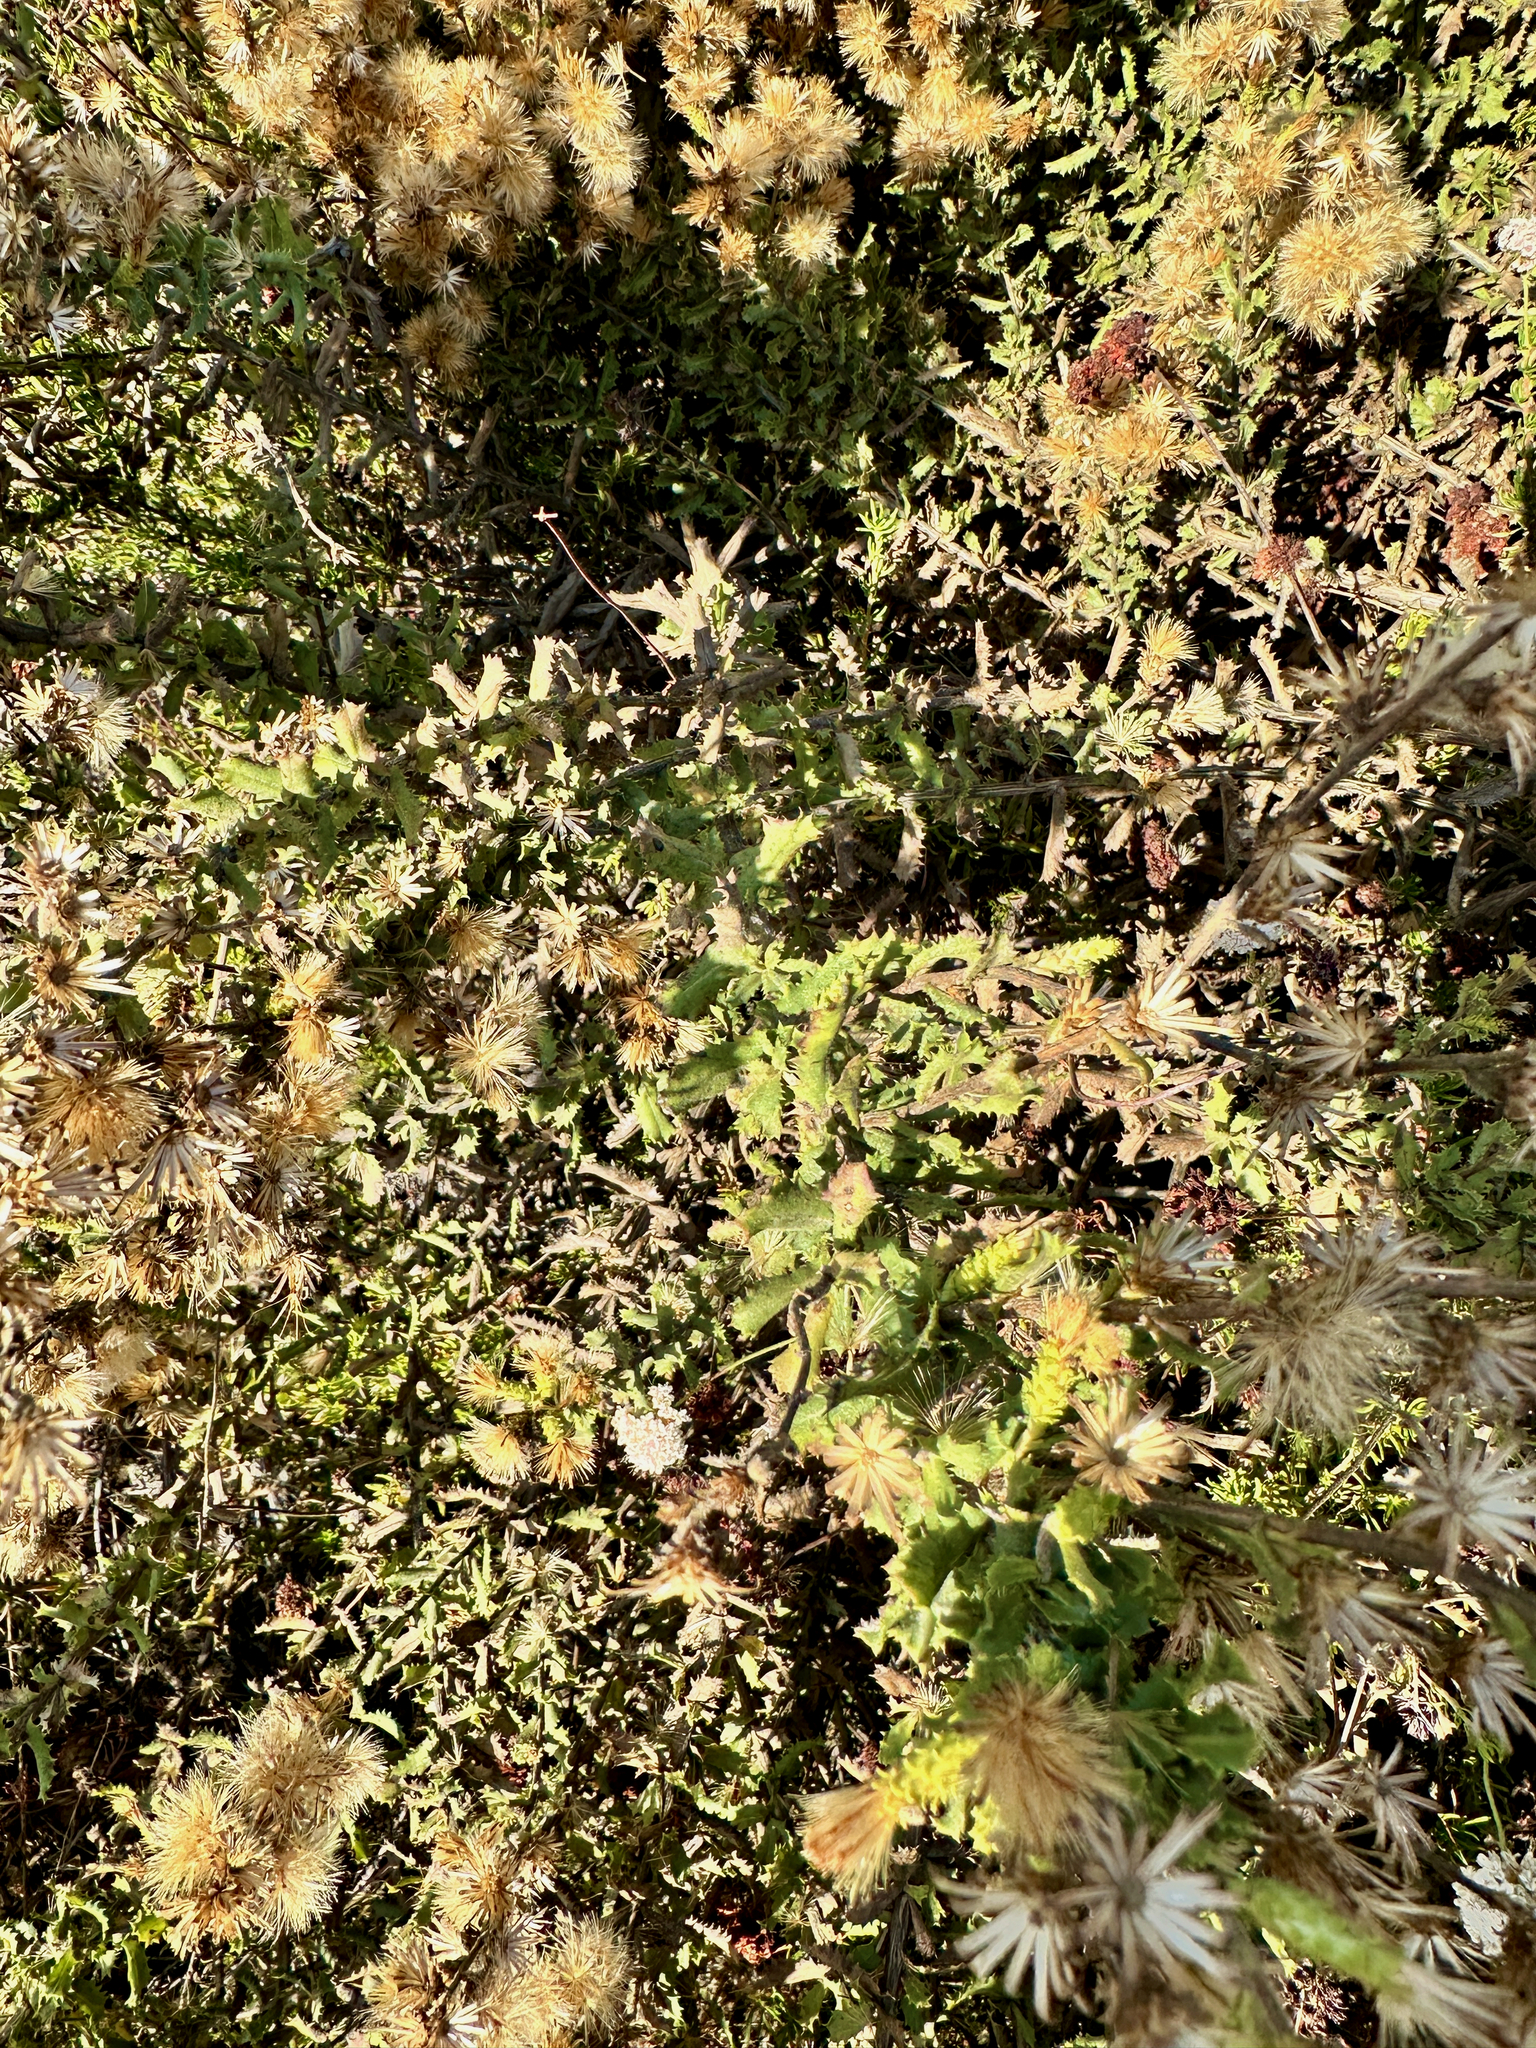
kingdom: Plantae
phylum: Tracheophyta
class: Magnoliopsida
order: Asterales
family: Asteraceae
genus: Hazardia
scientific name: Hazardia squarrosa
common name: Saw-tooth goldenbush
